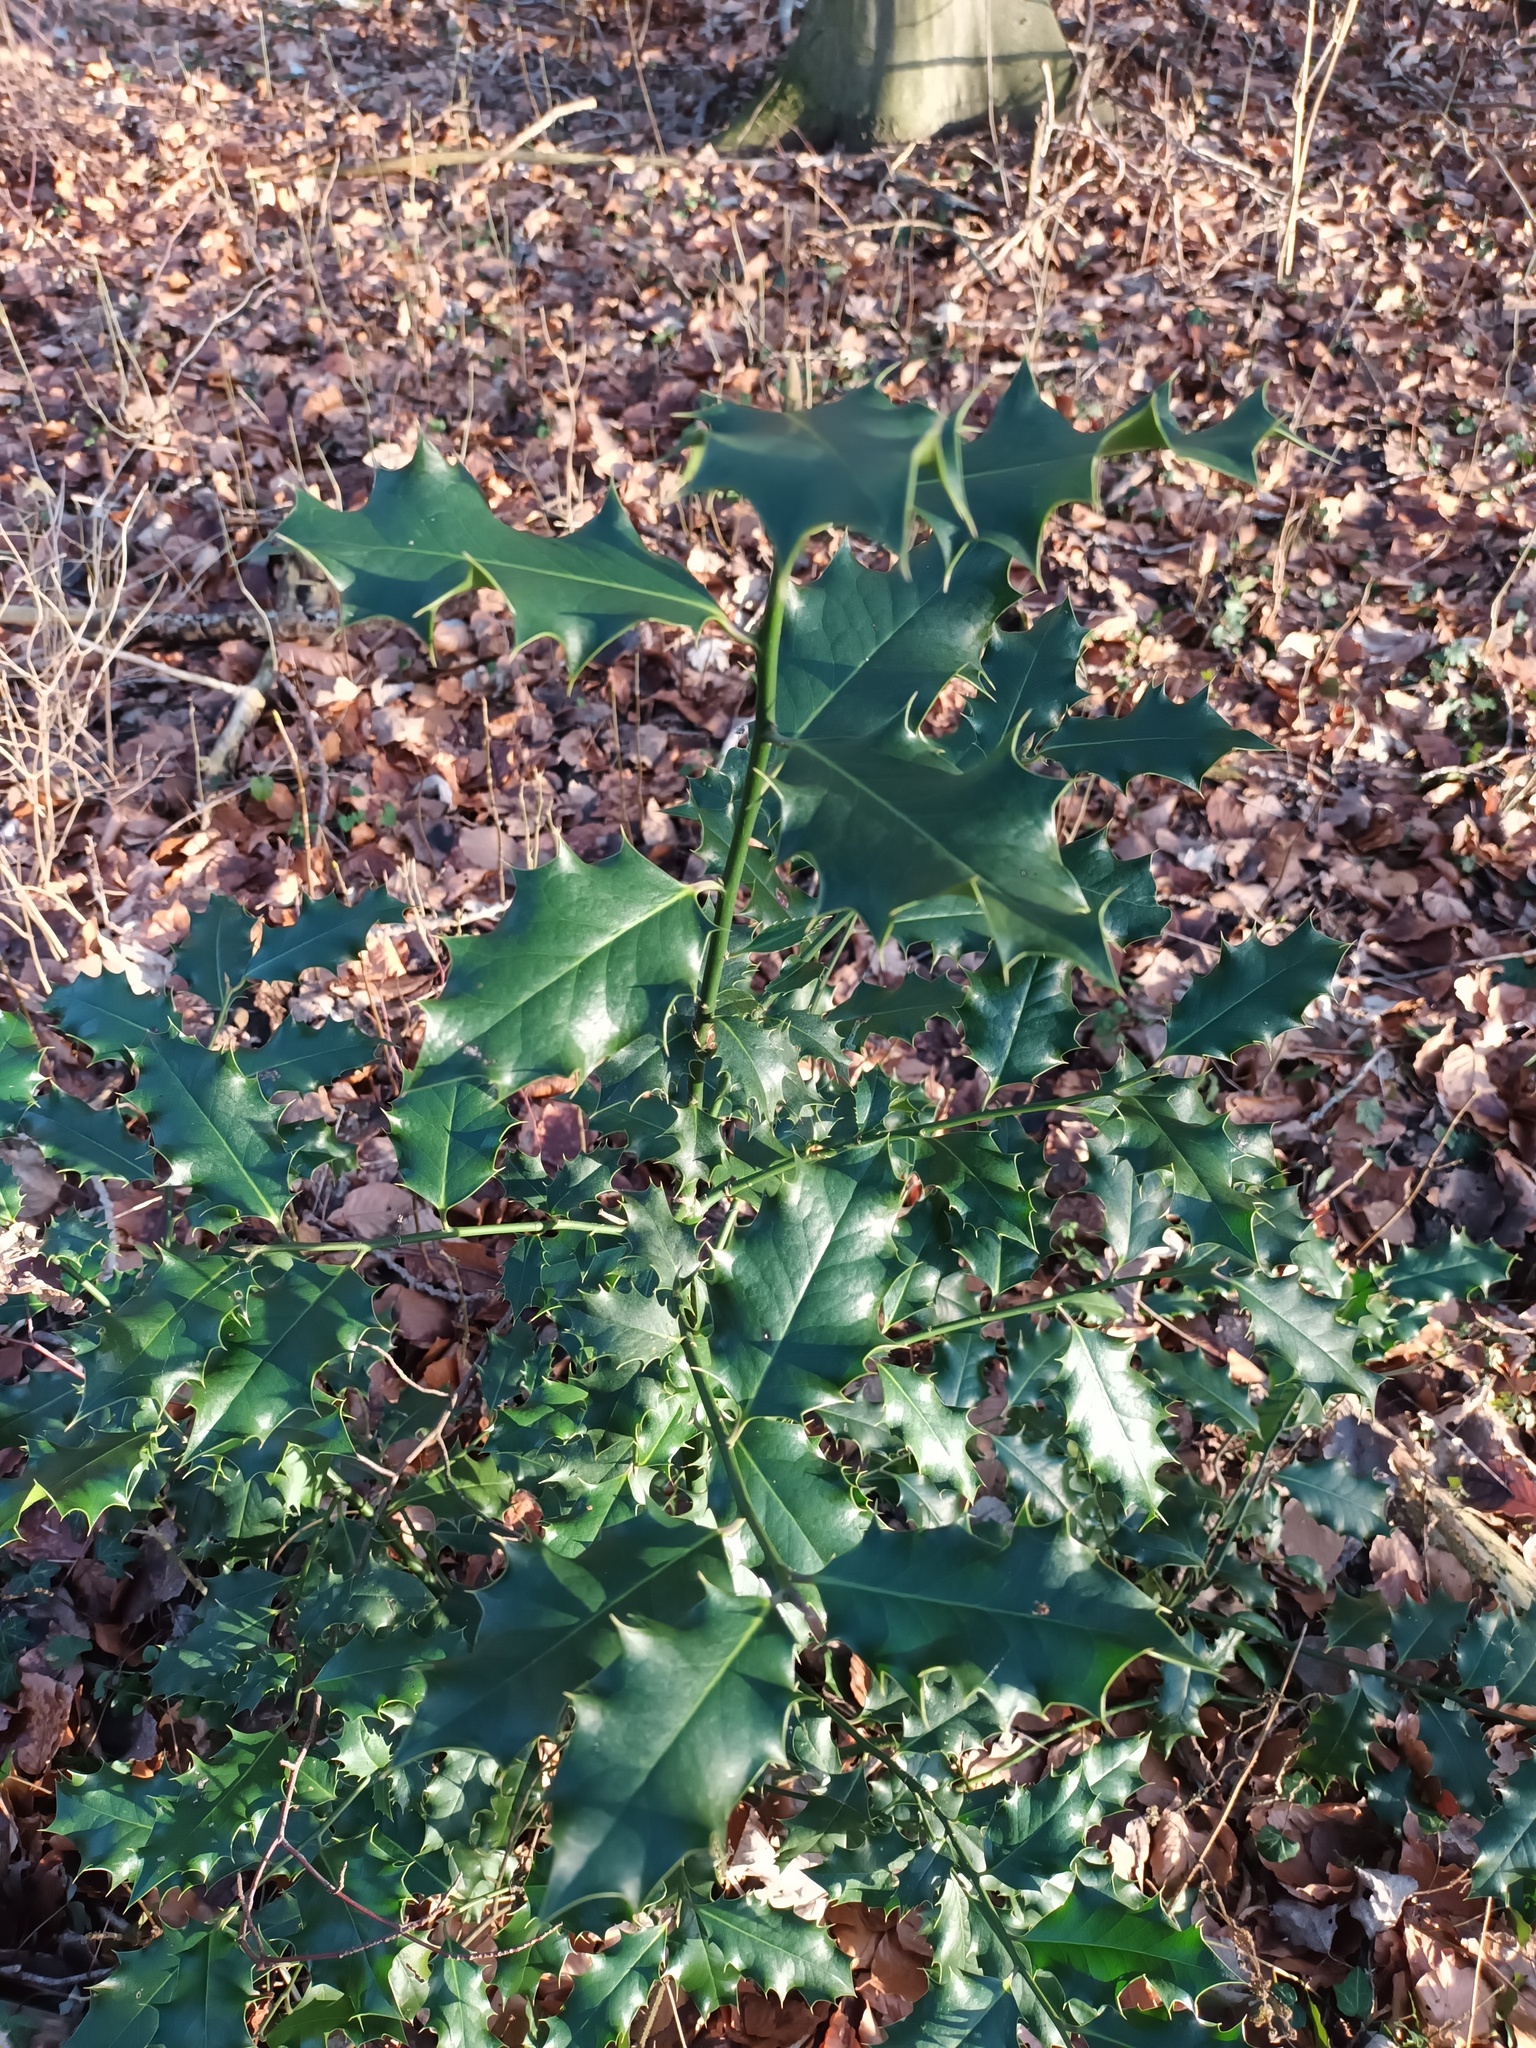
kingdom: Plantae
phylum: Tracheophyta
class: Magnoliopsida
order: Aquifoliales
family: Aquifoliaceae
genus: Ilex
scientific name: Ilex aquifolium
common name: English holly
